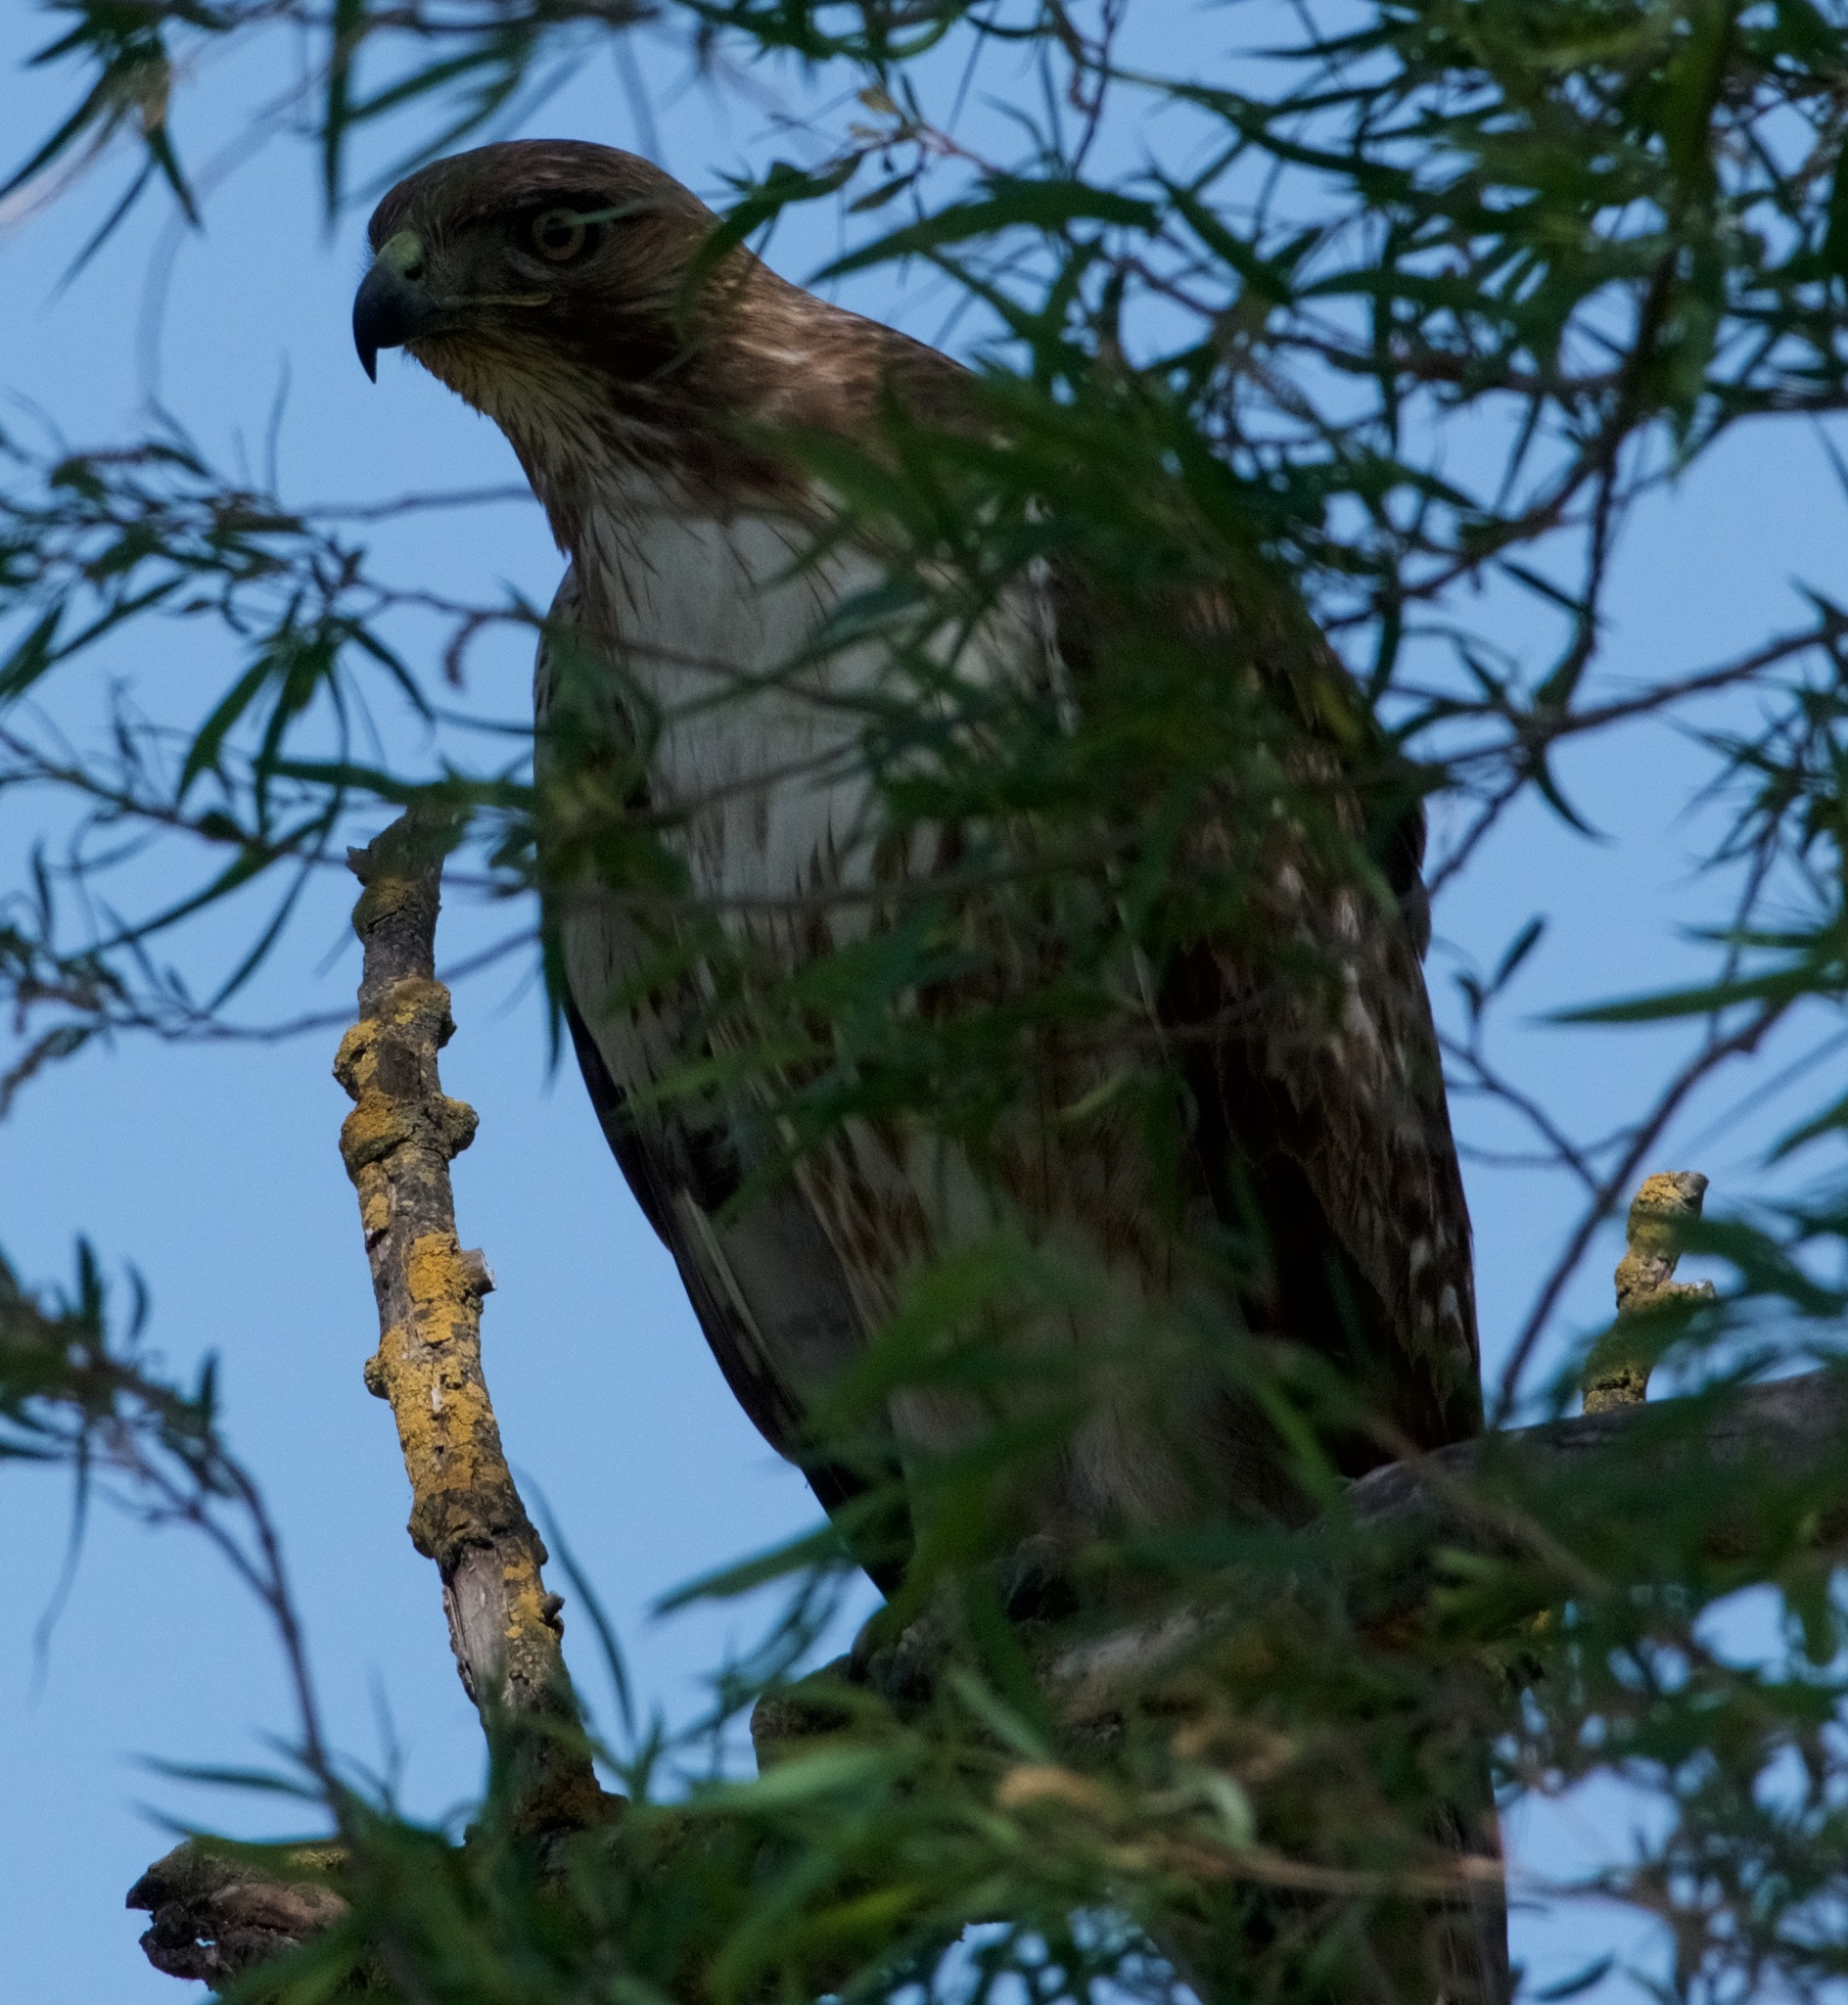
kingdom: Animalia
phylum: Chordata
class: Aves
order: Accipitriformes
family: Accipitridae
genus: Buteo
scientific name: Buteo jamaicensis
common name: Red-tailed hawk
